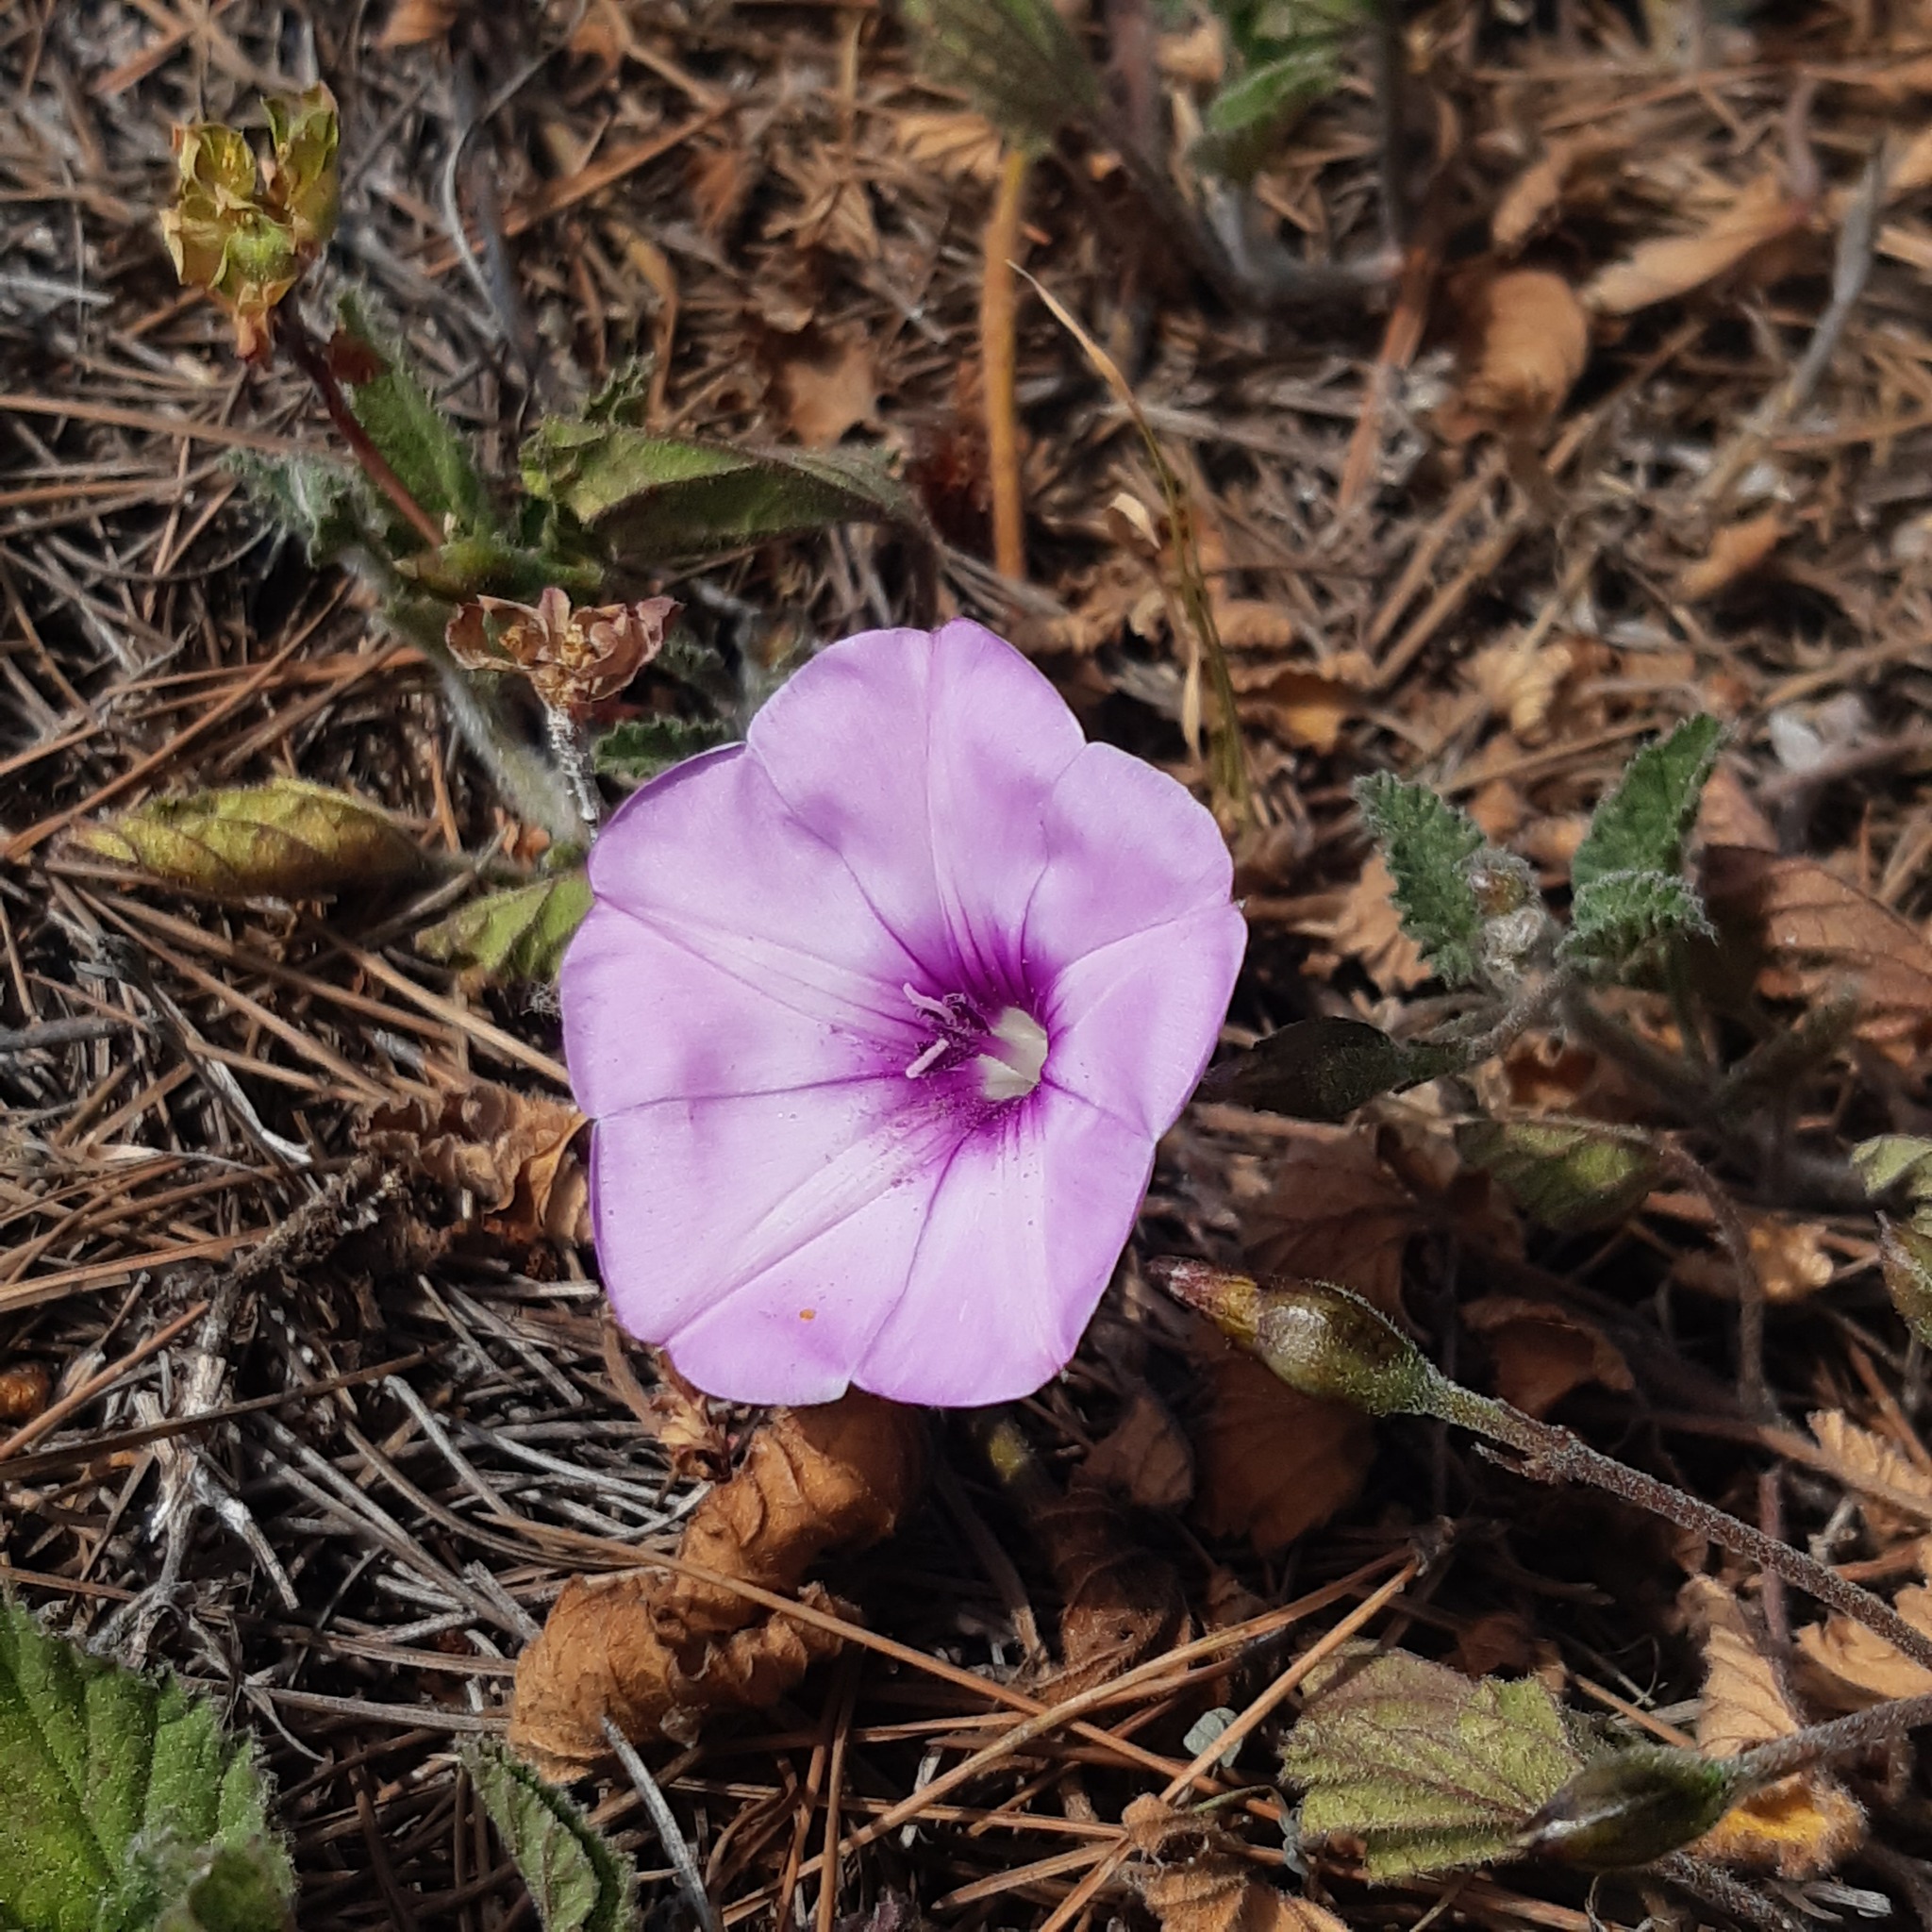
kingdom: Plantae
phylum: Tracheophyta
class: Magnoliopsida
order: Solanales
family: Convolvulaceae
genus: Convolvulus
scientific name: Convolvulus althaeoides
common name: Mallow bindweed
